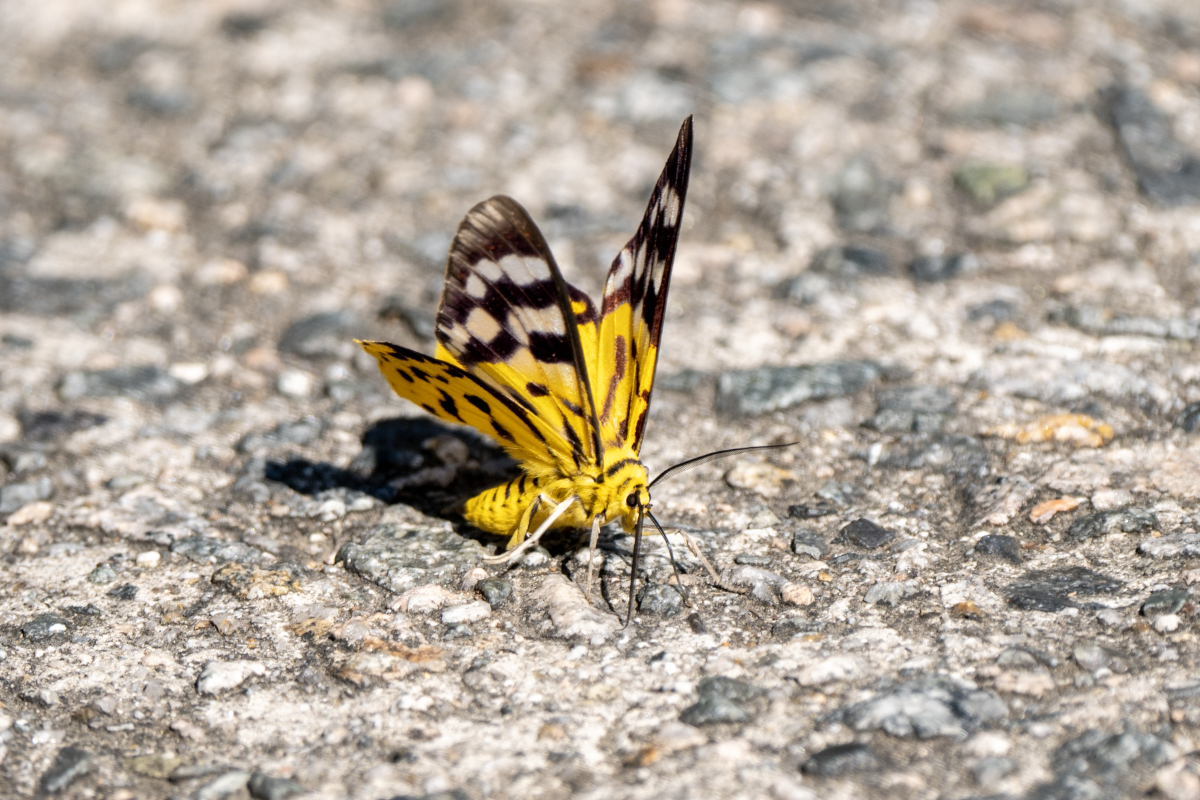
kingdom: Animalia
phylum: Arthropoda
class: Insecta
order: Lepidoptera
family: Geometridae
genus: Dysphania
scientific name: Dysphania militaris
